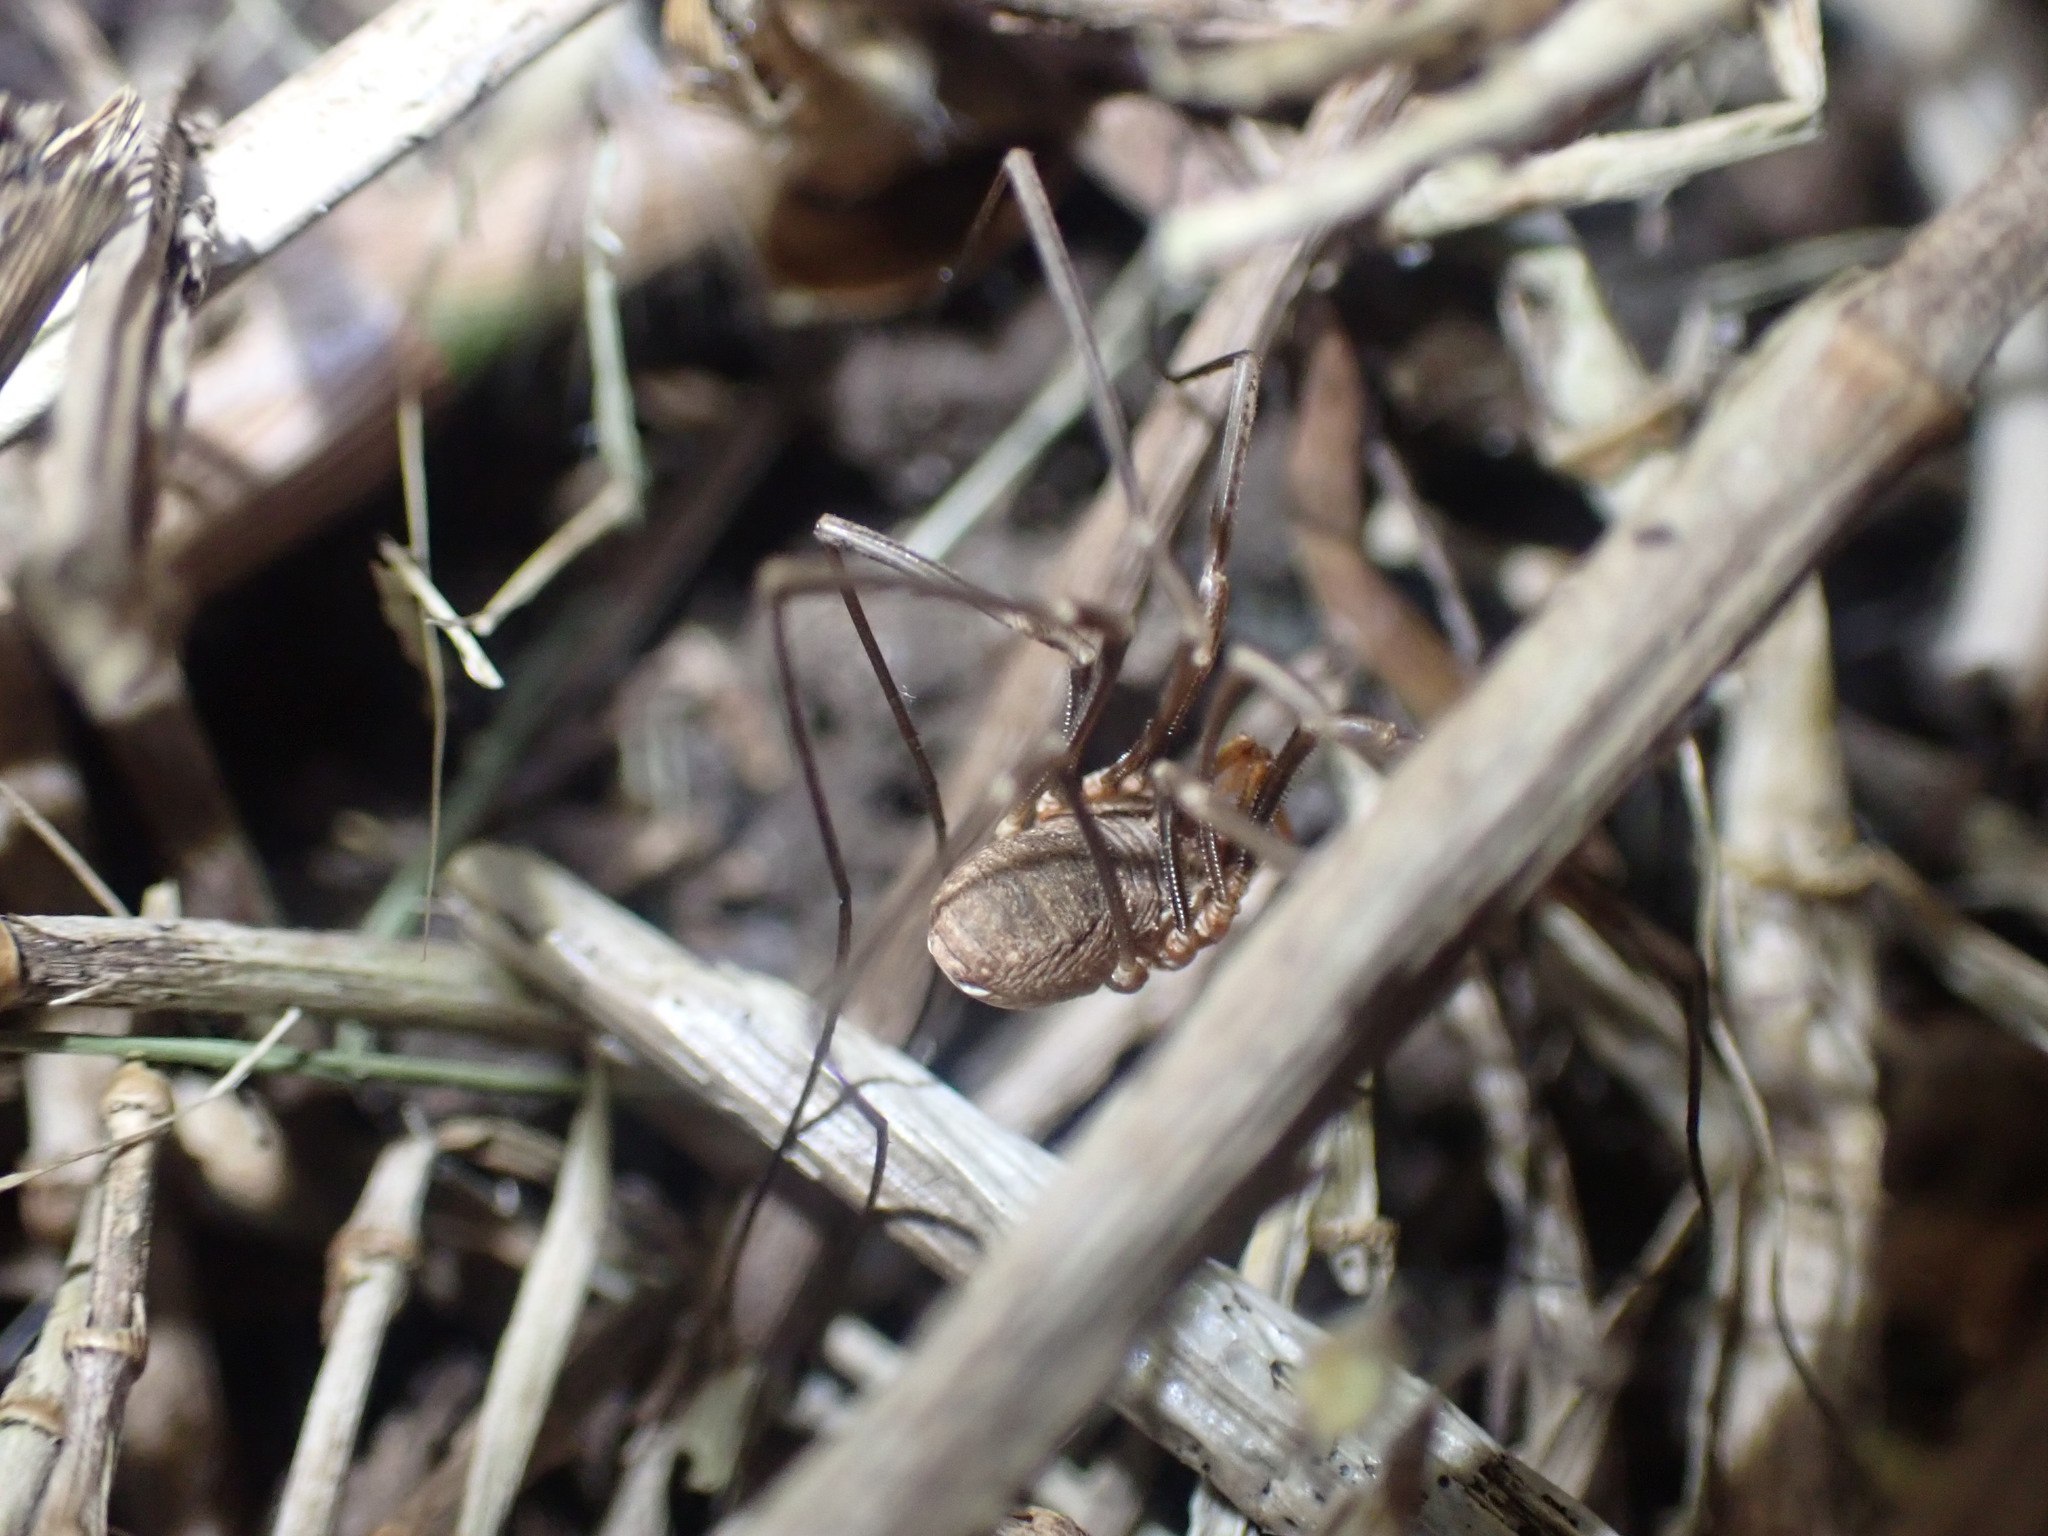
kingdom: Animalia
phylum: Arthropoda
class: Arachnida
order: Opiliones
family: Phalangiidae
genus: Phalangium
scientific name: Phalangium opilio
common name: Daddy longleg
